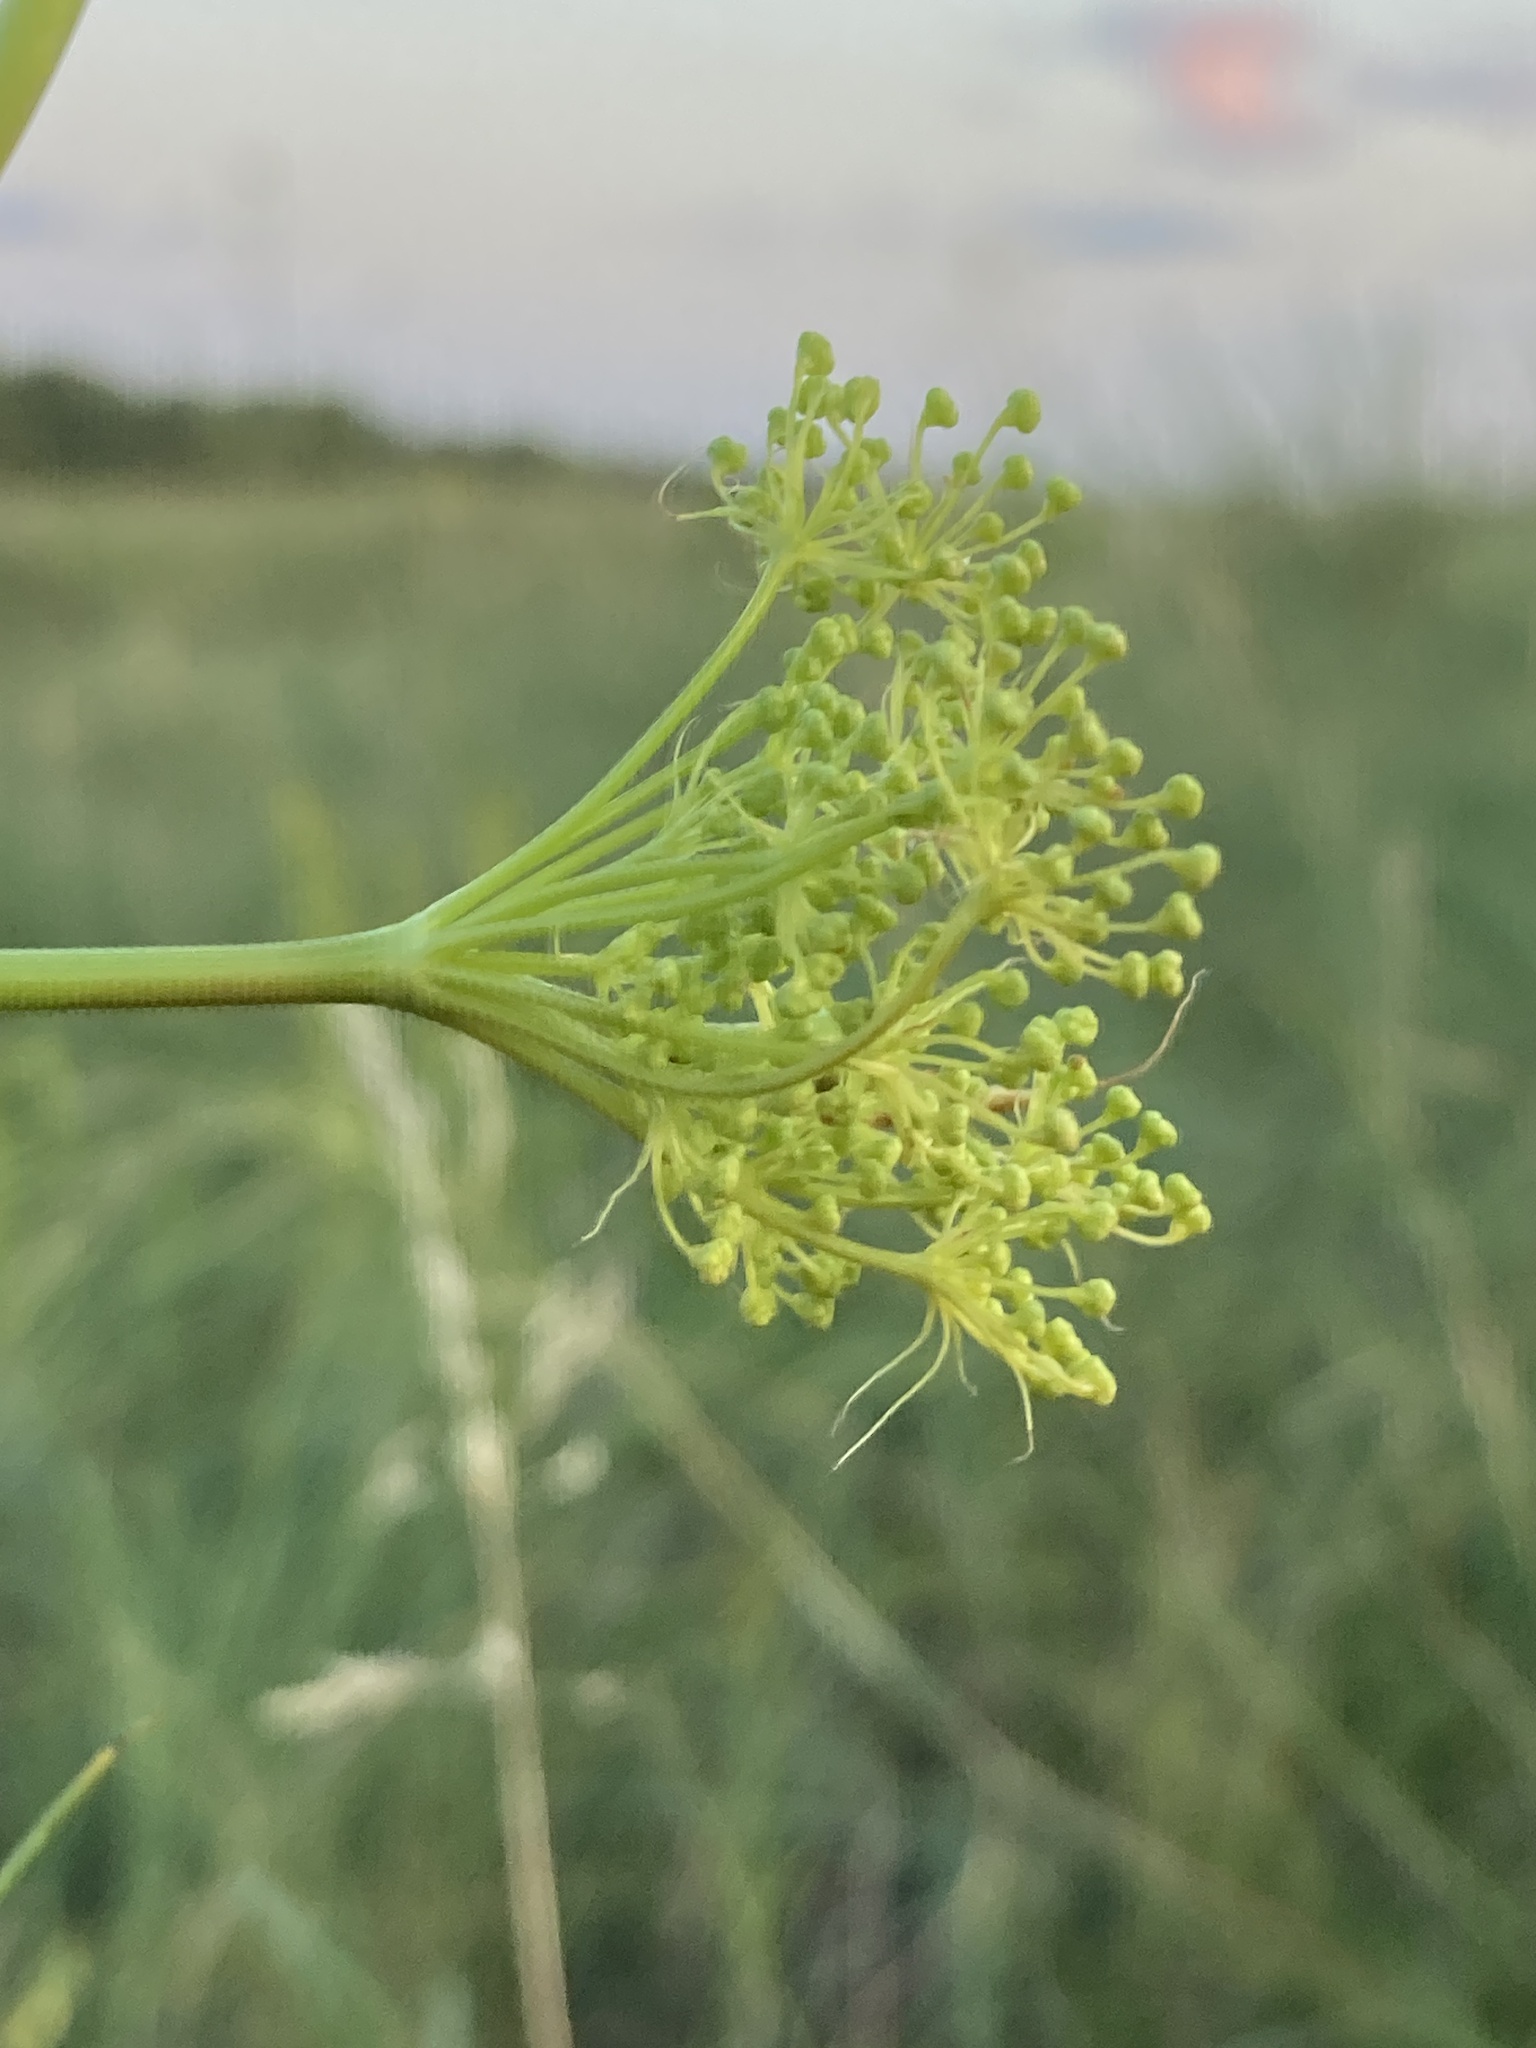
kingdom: Plantae
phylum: Tracheophyta
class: Magnoliopsida
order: Apiales
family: Apiaceae
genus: Falcaria
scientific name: Falcaria vulgaris
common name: Longleaf
